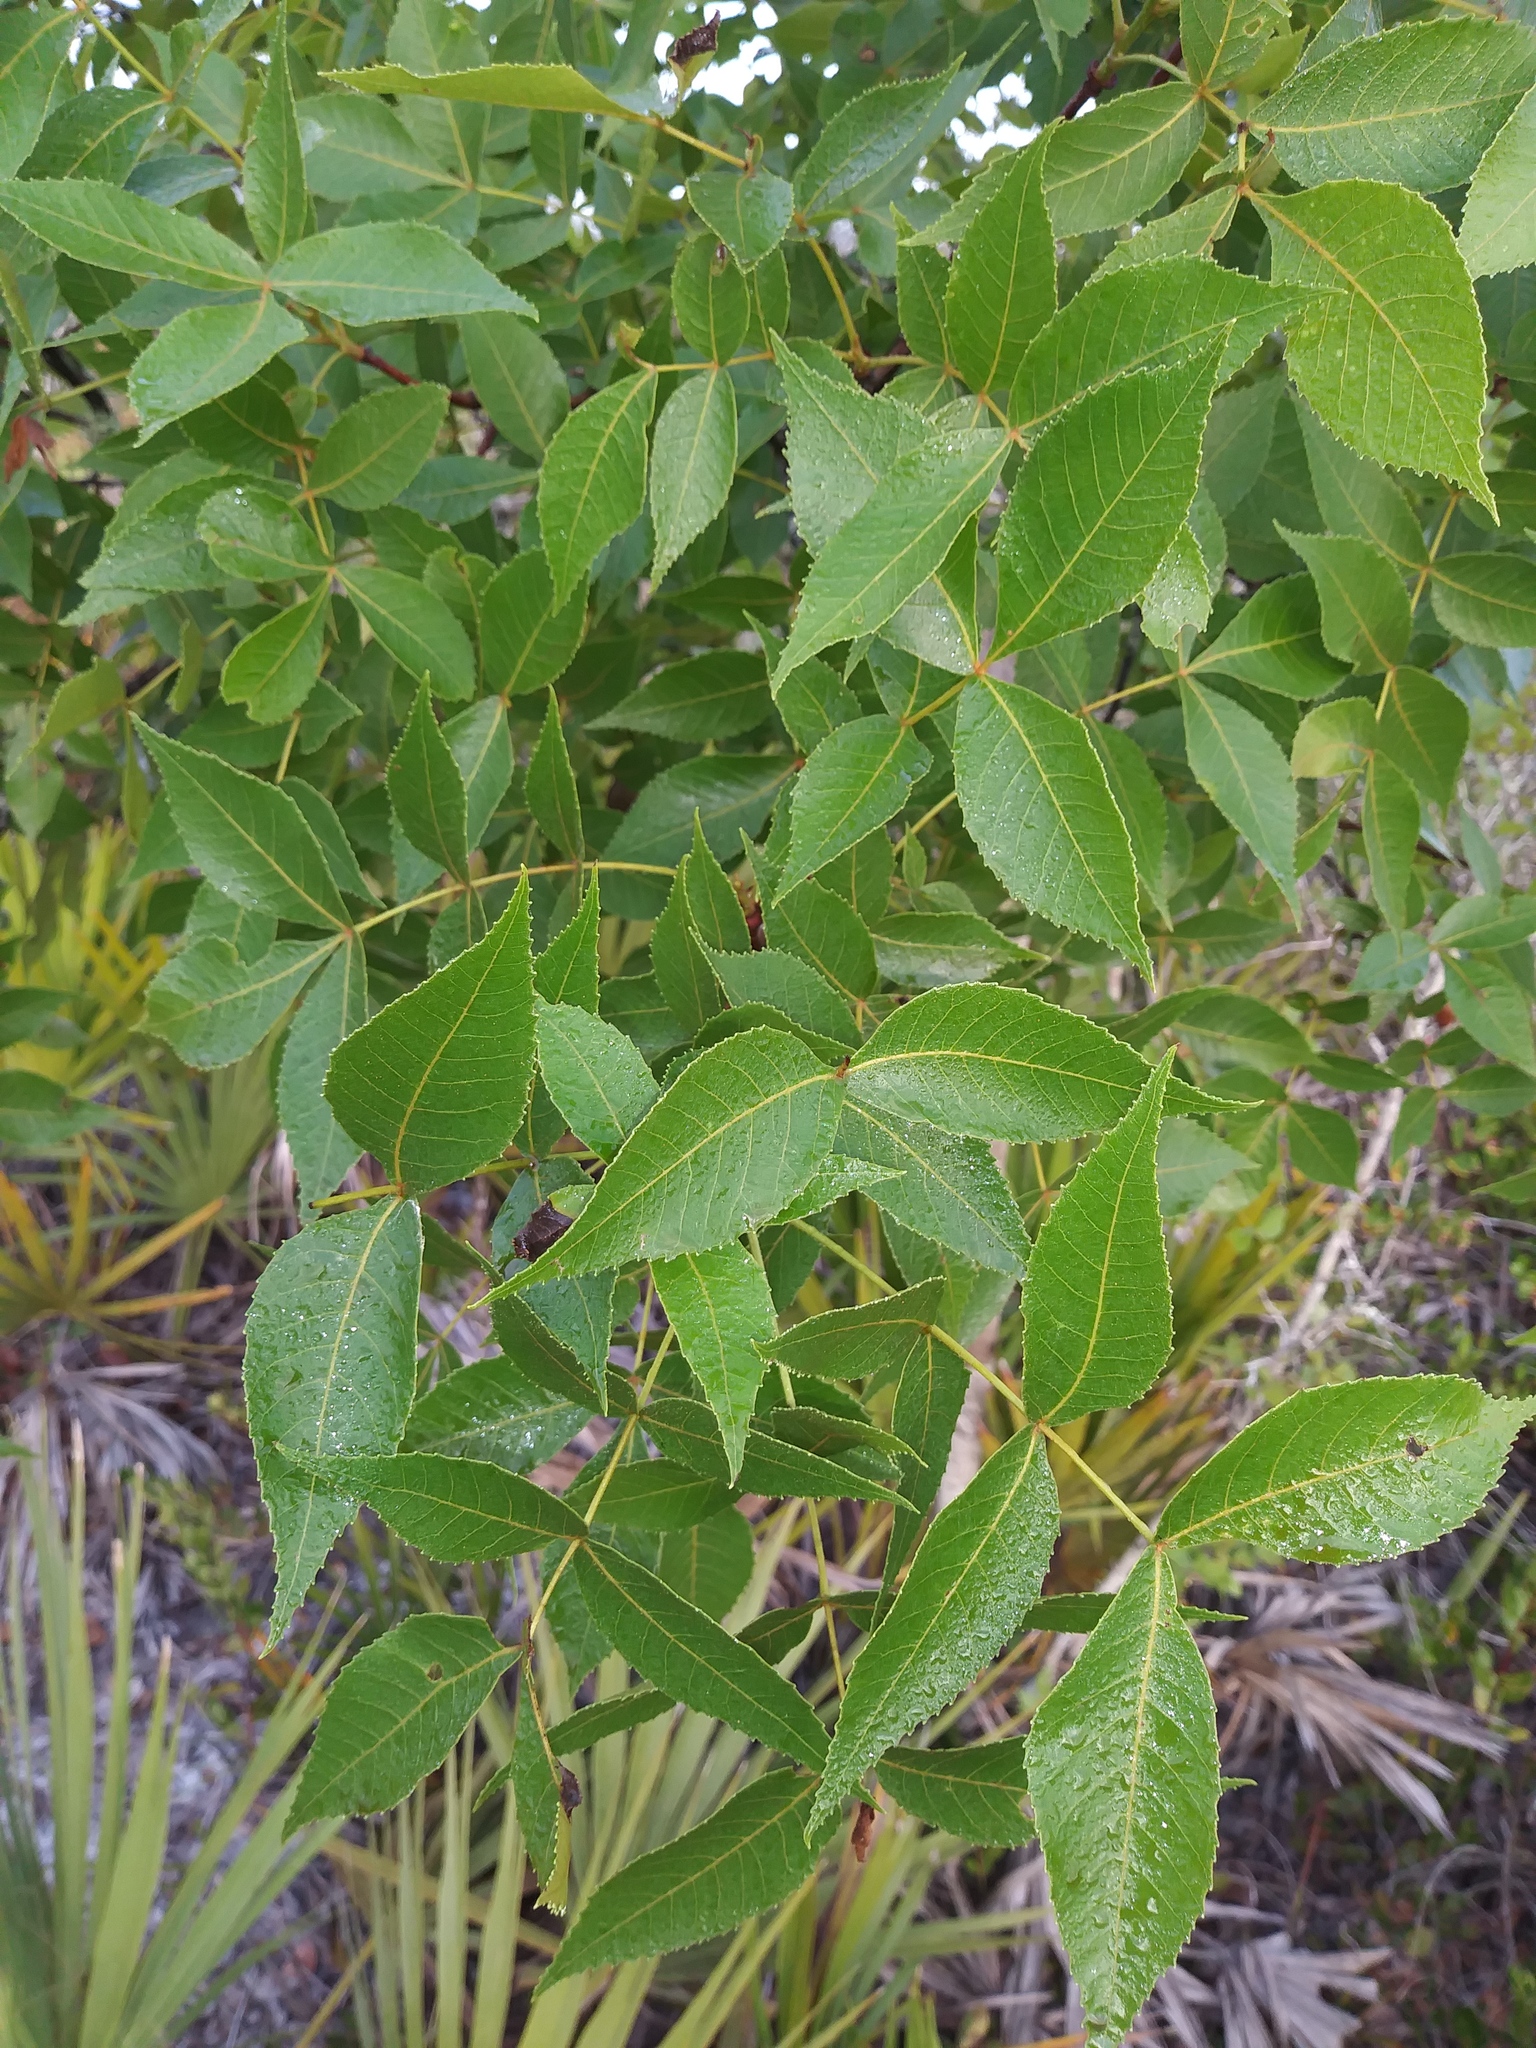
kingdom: Plantae
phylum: Tracheophyta
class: Magnoliopsida
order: Fagales
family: Juglandaceae
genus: Carya
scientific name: Carya floridana
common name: Scrub hickory
